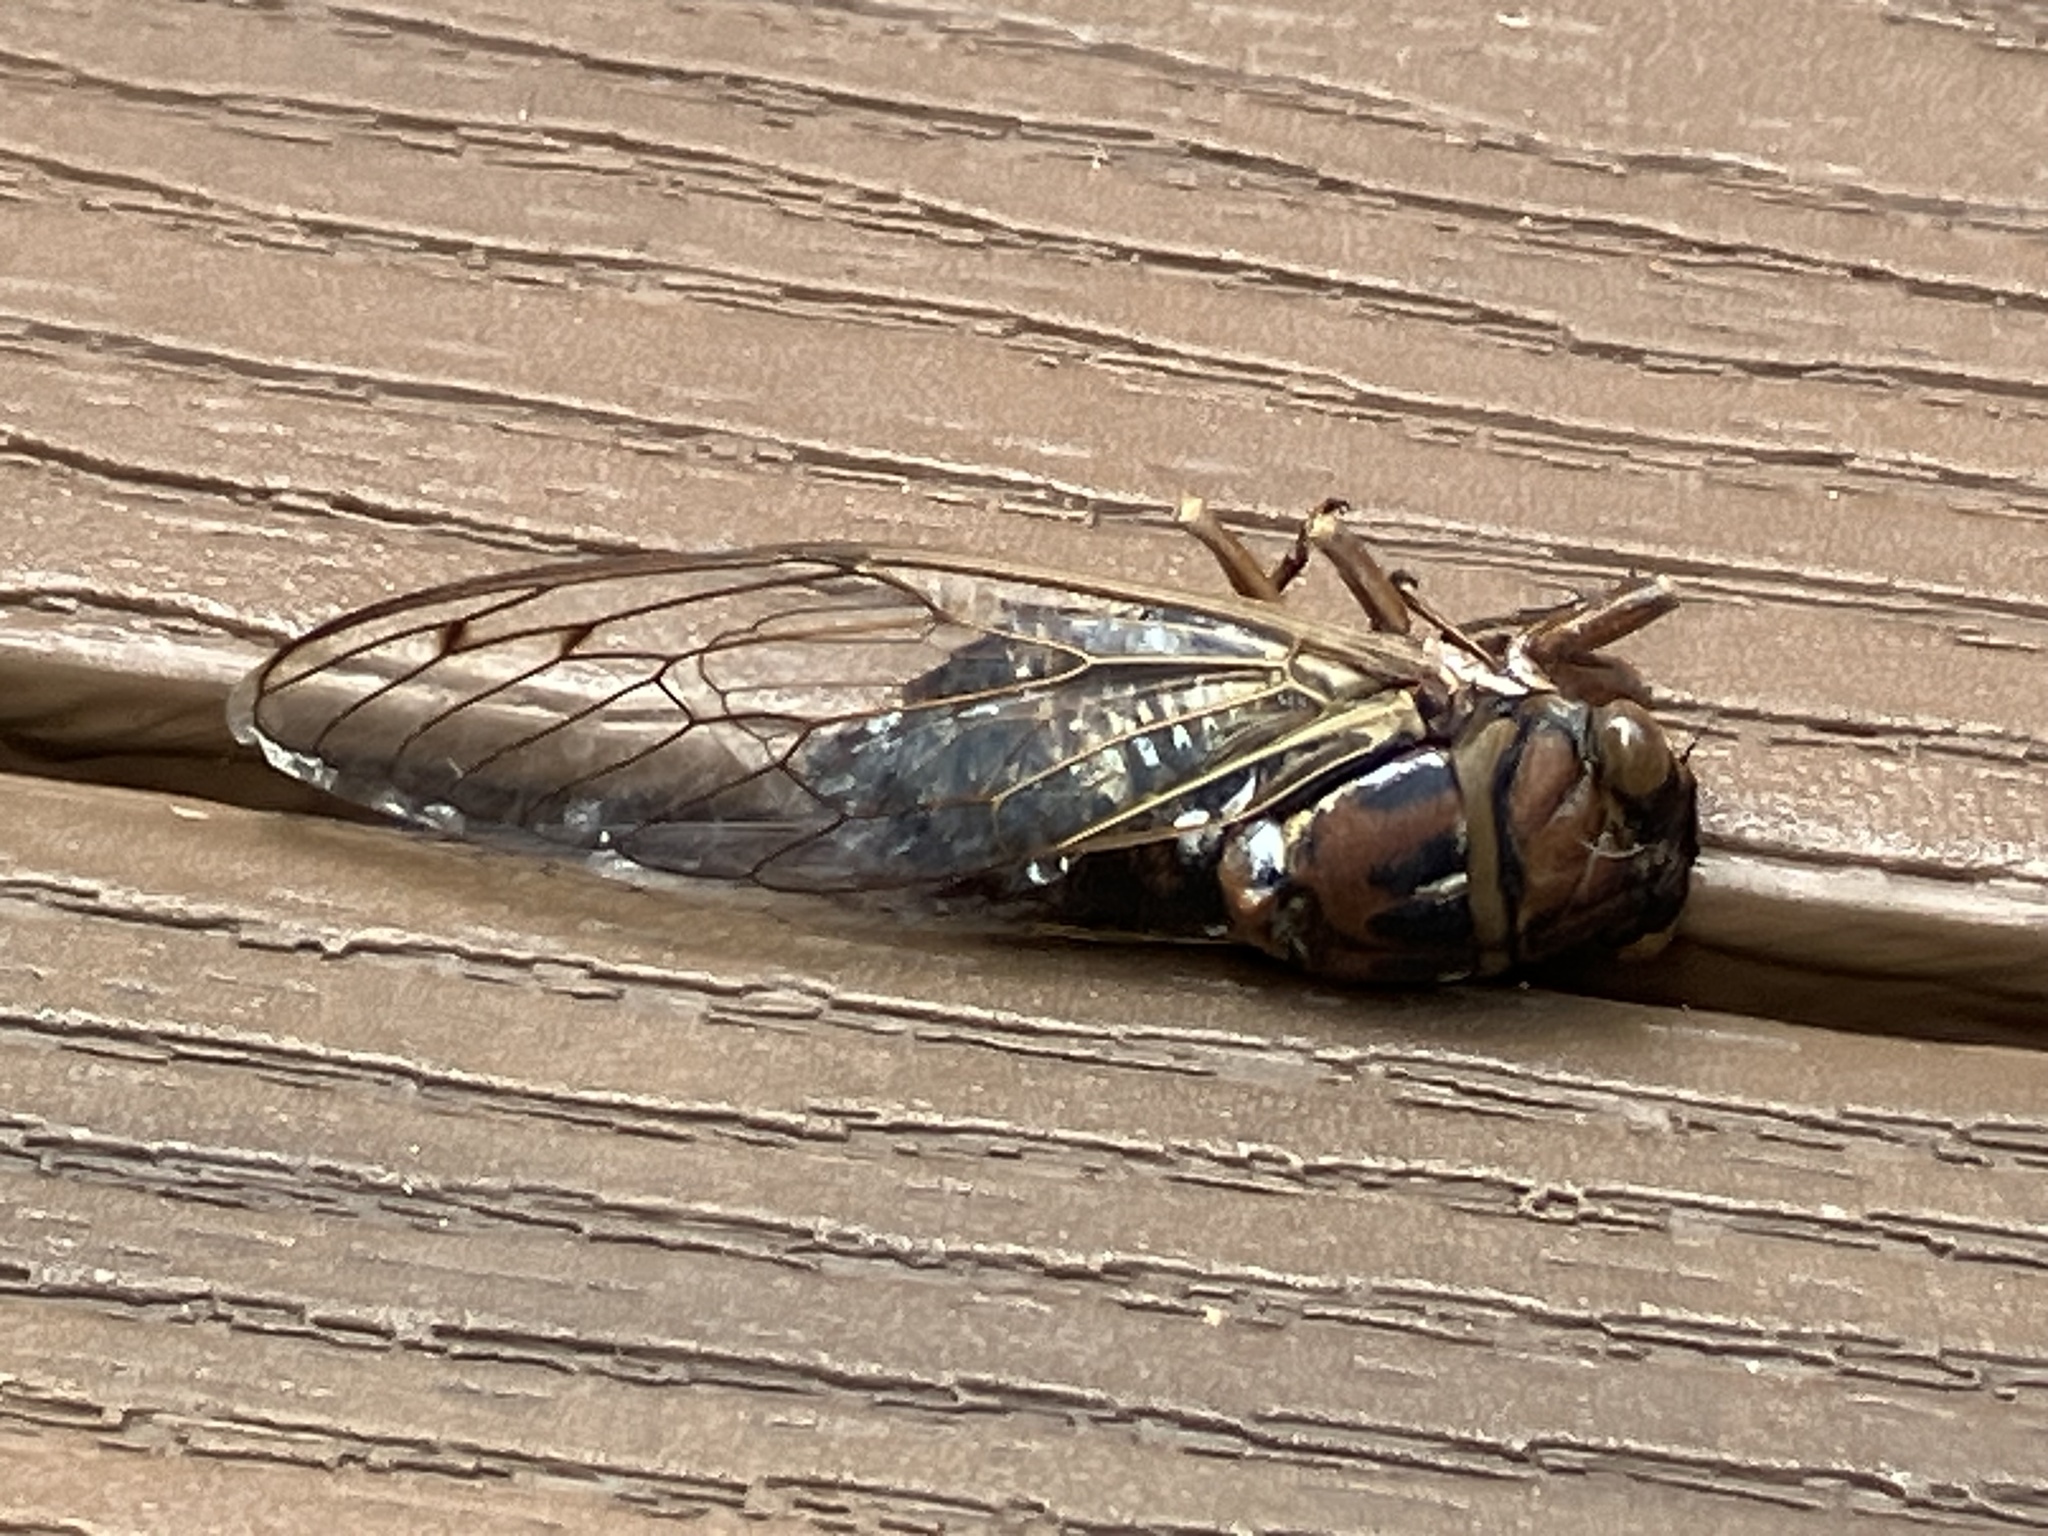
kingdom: Animalia
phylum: Arthropoda
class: Insecta
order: Hemiptera
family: Cicadidae
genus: Megatibicen
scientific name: Megatibicen resonans
